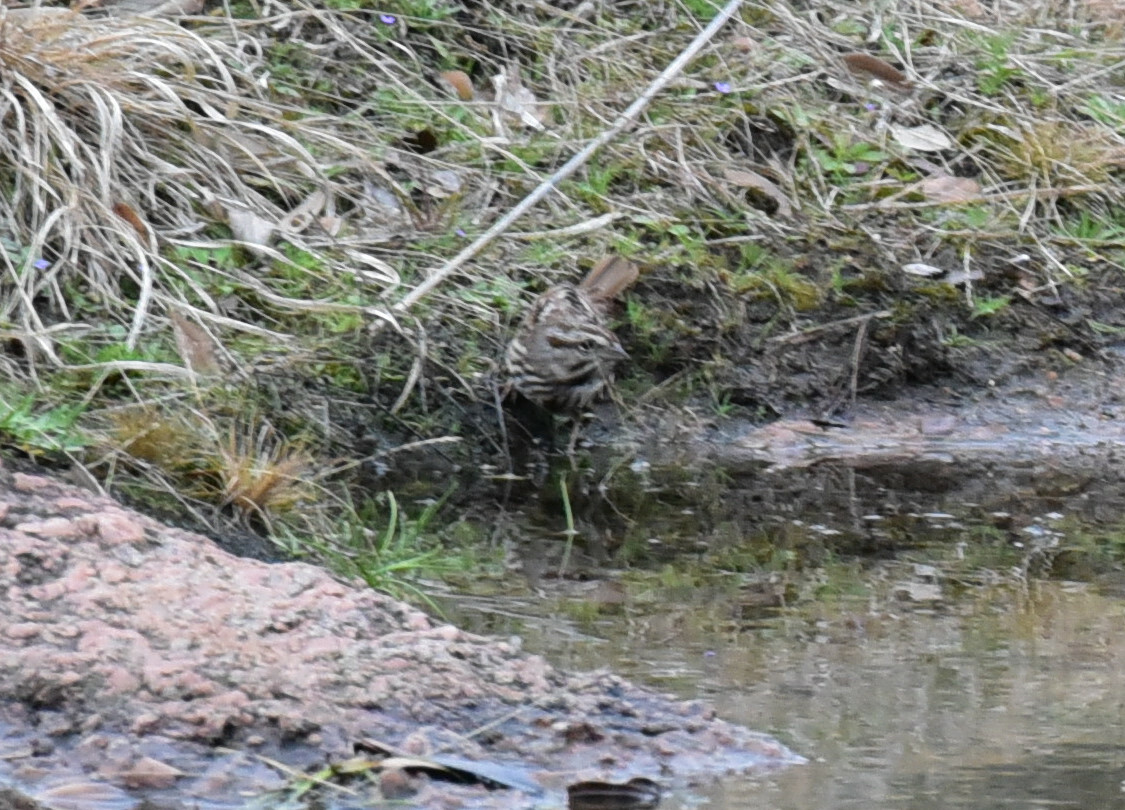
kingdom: Animalia
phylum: Chordata
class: Aves
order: Passeriformes
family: Passerellidae
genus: Melospiza
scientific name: Melospiza melodia
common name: Song sparrow
